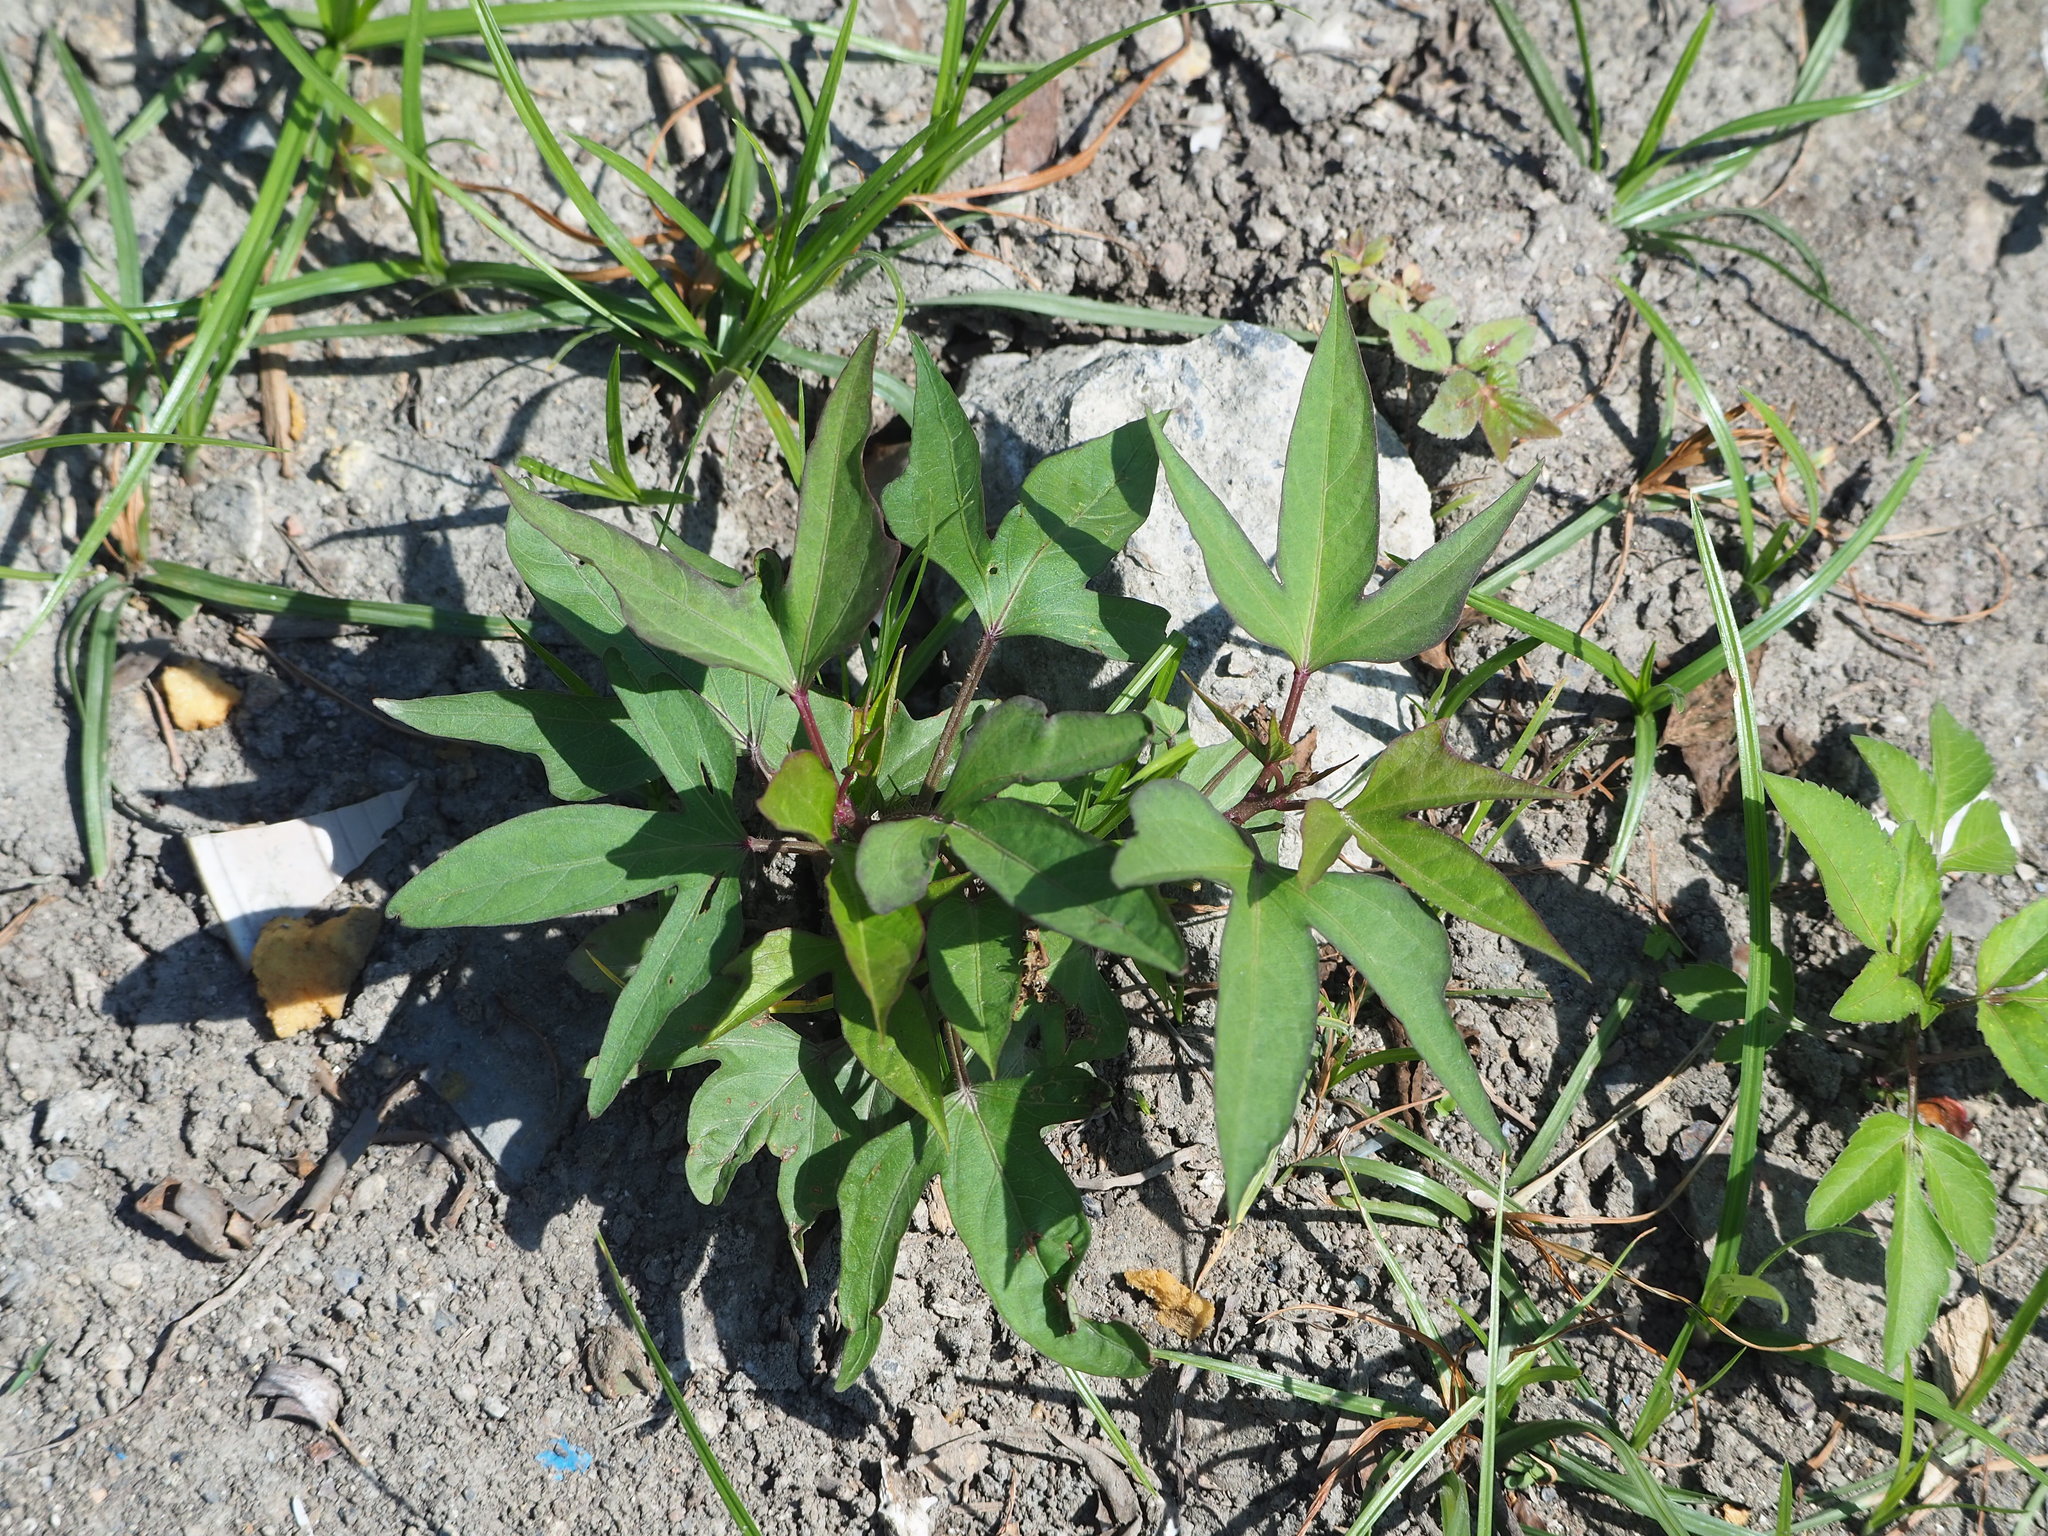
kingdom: Plantae
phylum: Tracheophyta
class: Magnoliopsida
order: Solanales
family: Convolvulaceae
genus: Ipomoea
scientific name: Ipomoea batatas
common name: Sweet-potato
